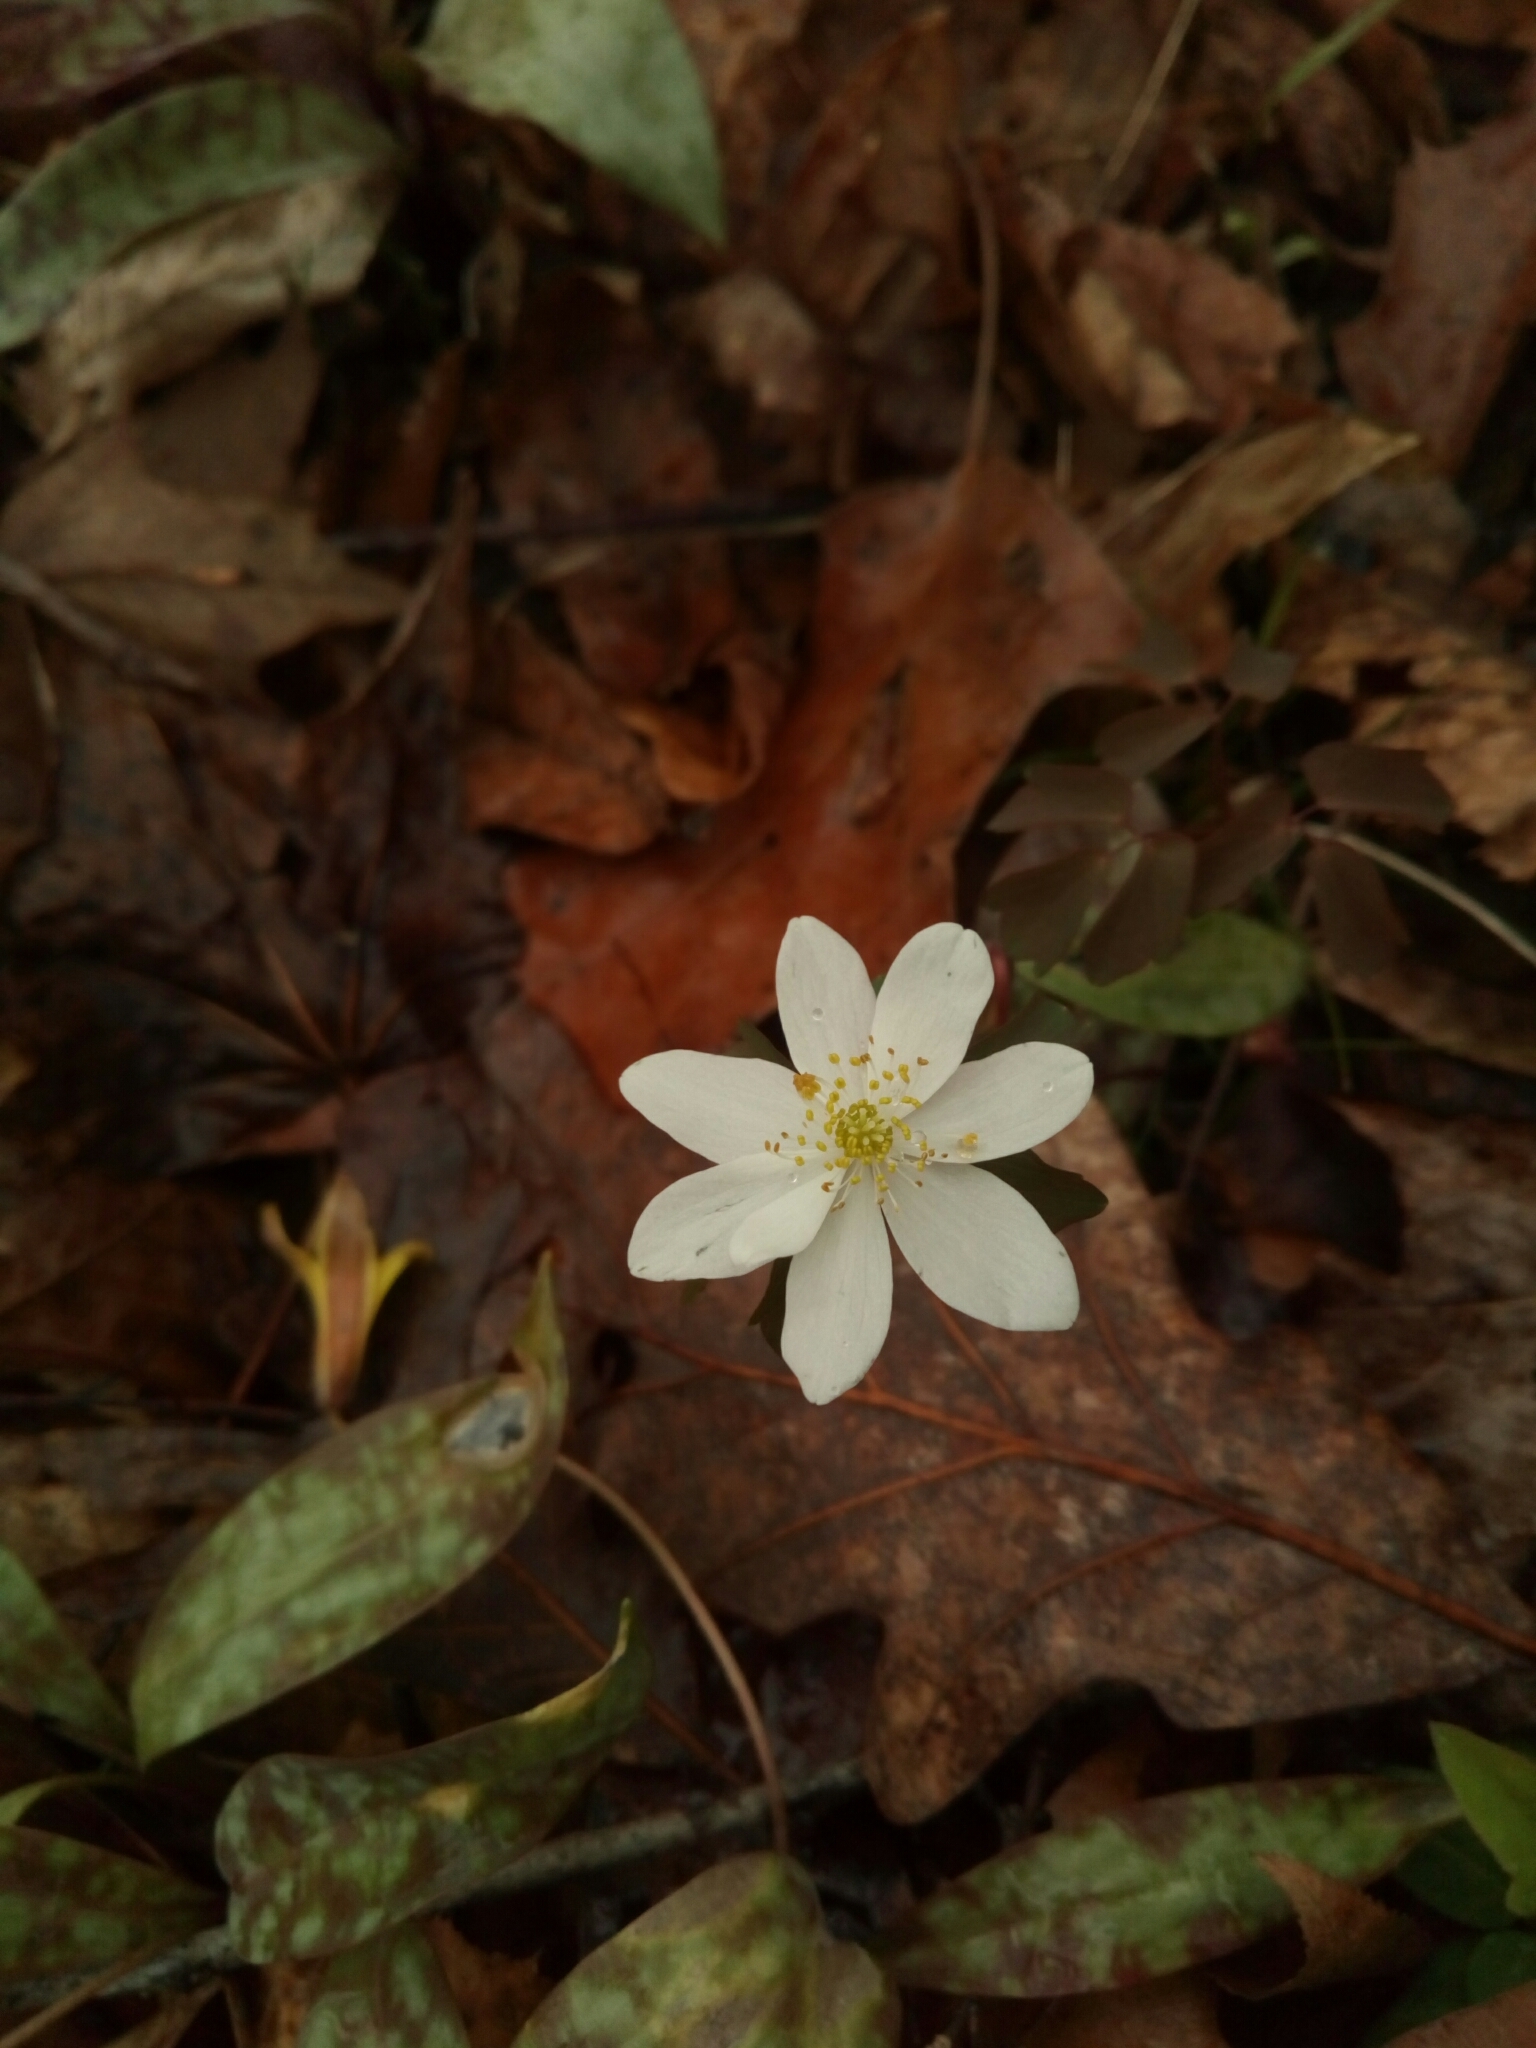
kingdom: Plantae
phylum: Tracheophyta
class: Magnoliopsida
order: Ranunculales
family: Ranunculaceae
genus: Thalictrum
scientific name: Thalictrum thalictroides
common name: Rue-anemone
